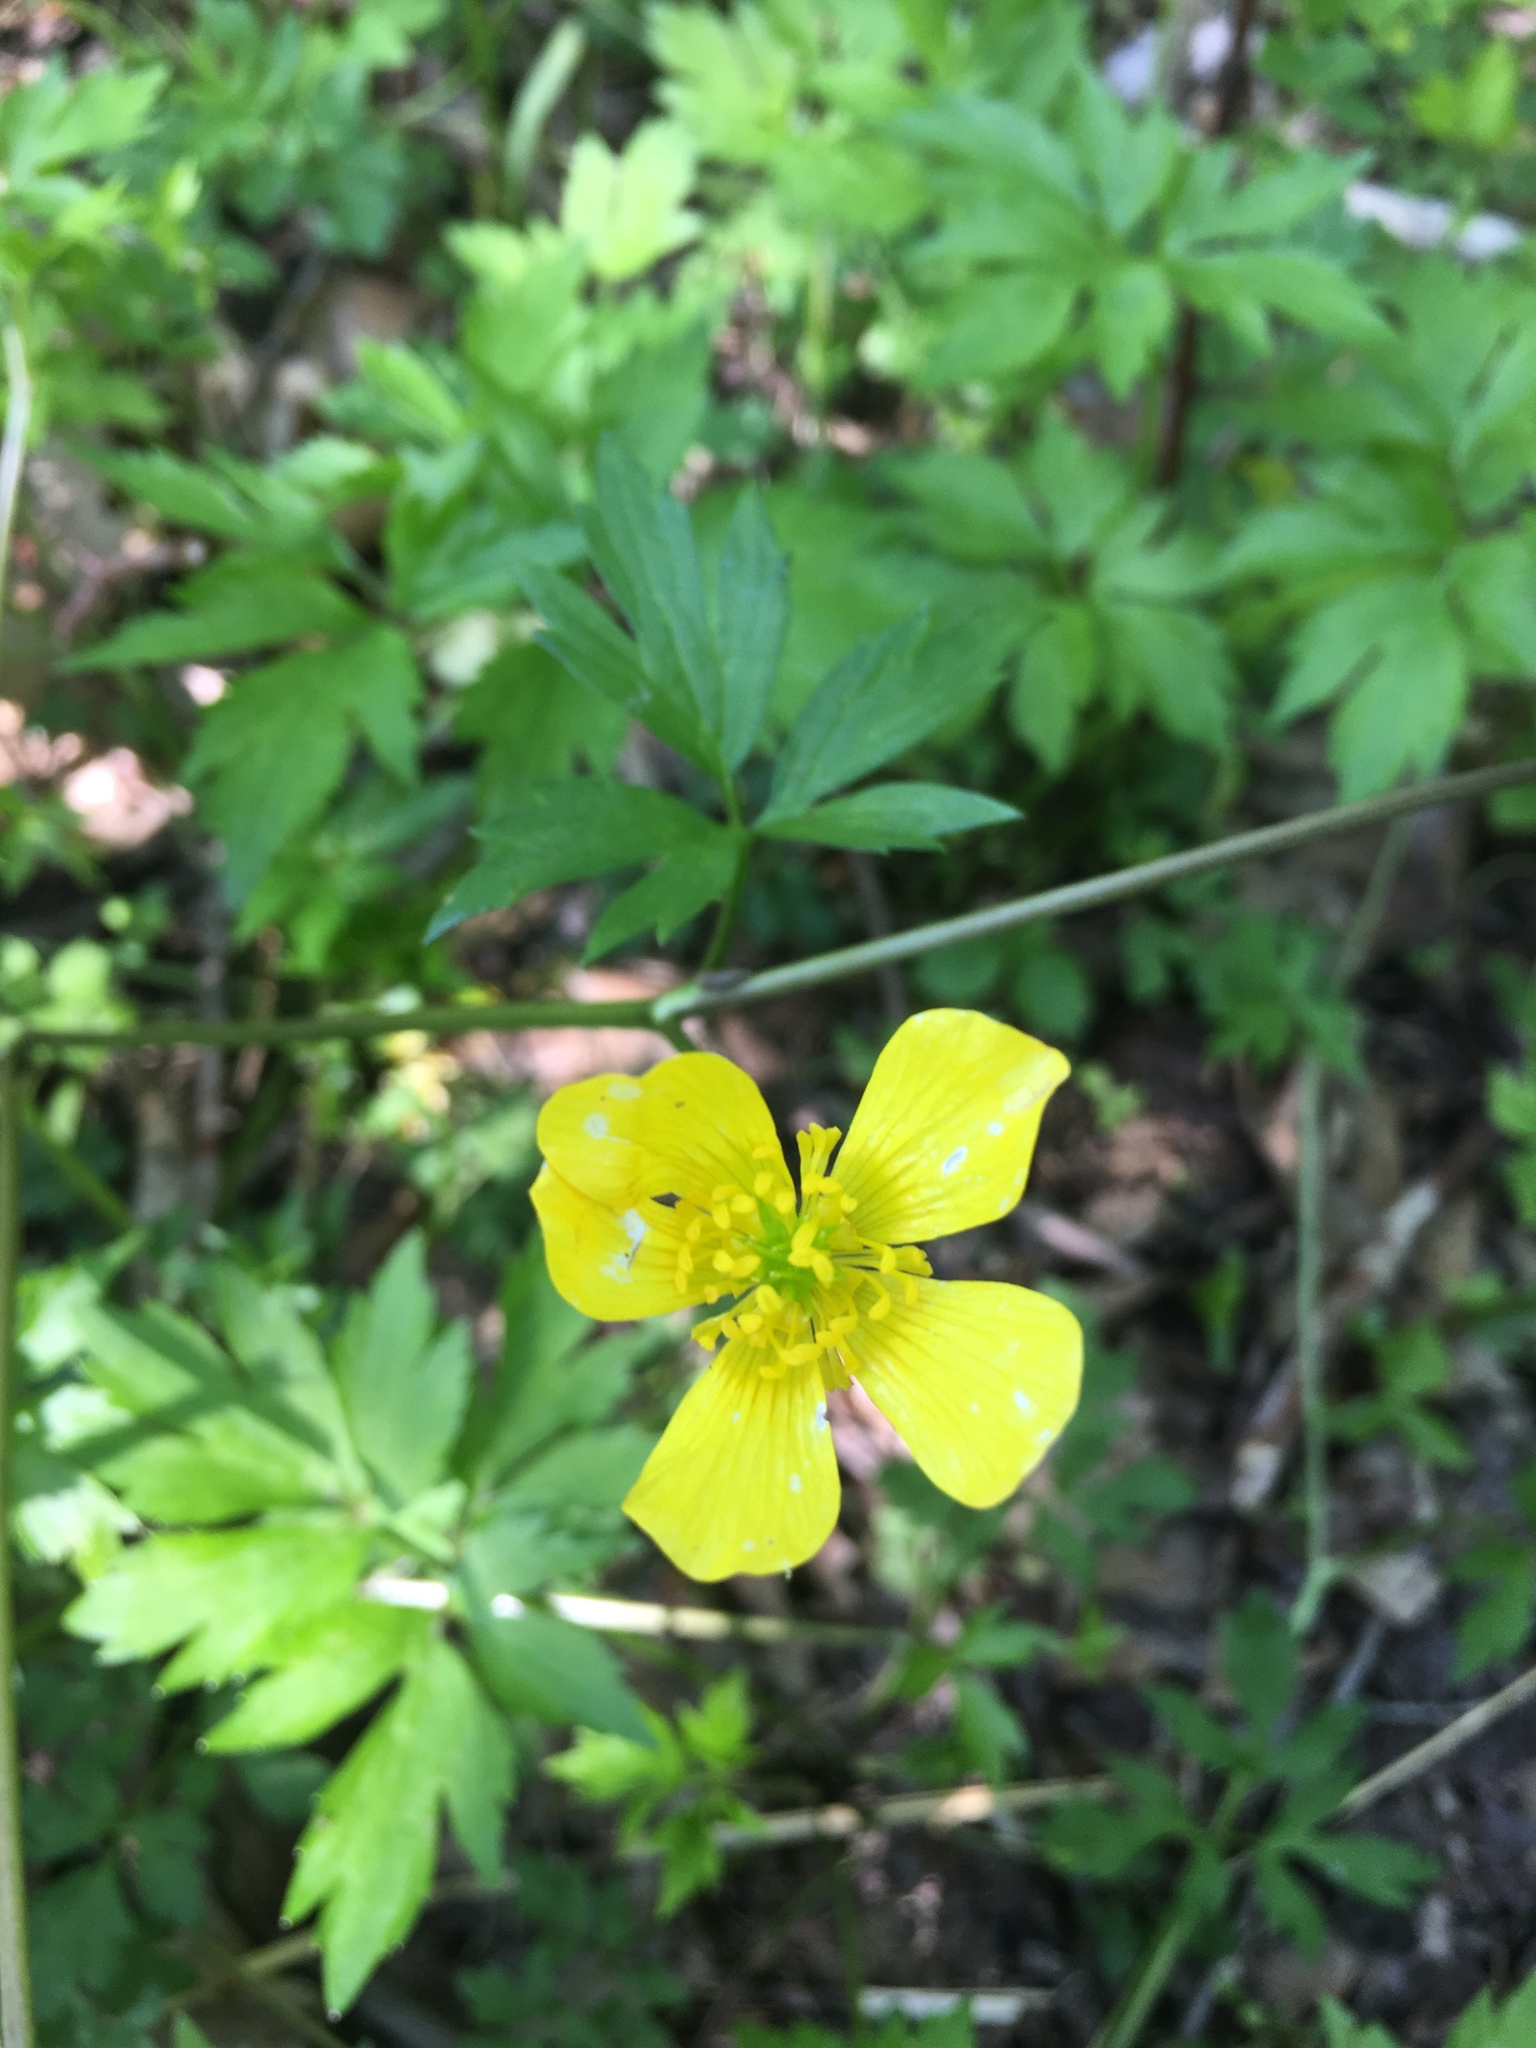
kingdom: Plantae
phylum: Tracheophyta
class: Magnoliopsida
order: Ranunculales
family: Ranunculaceae
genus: Ranunculus
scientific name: Ranunculus hispidus
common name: Bristly buttercup
